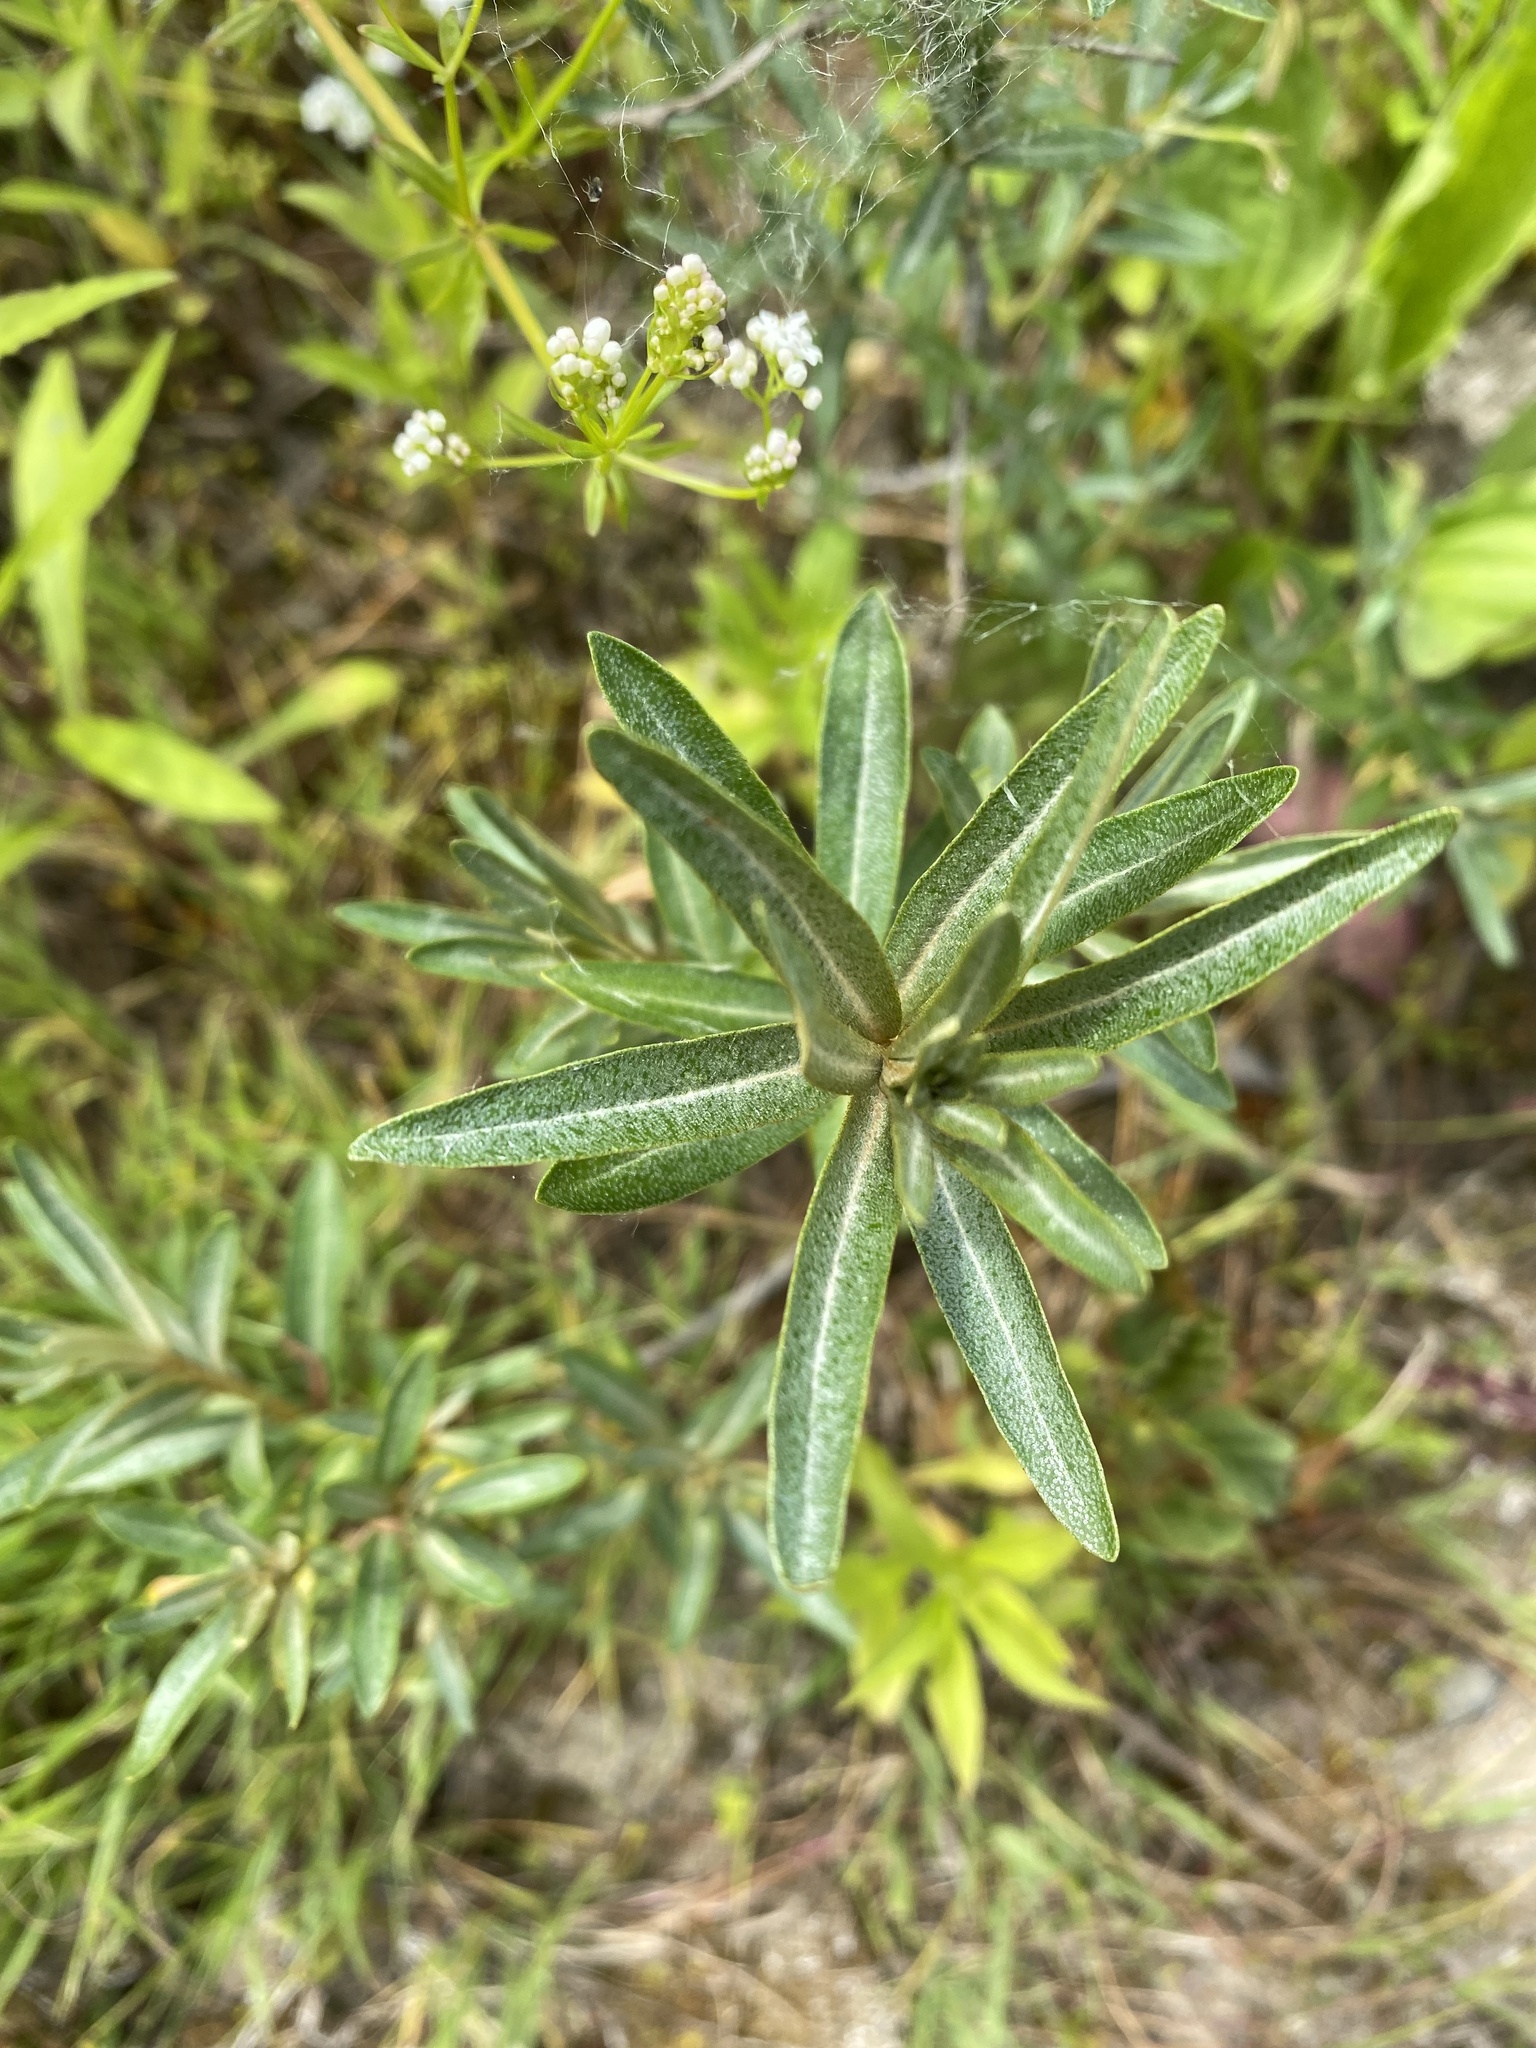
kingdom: Plantae
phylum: Tracheophyta
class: Magnoliopsida
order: Rosales
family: Elaeagnaceae
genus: Hippophae
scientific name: Hippophae rhamnoides
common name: Sea-buckthorn
